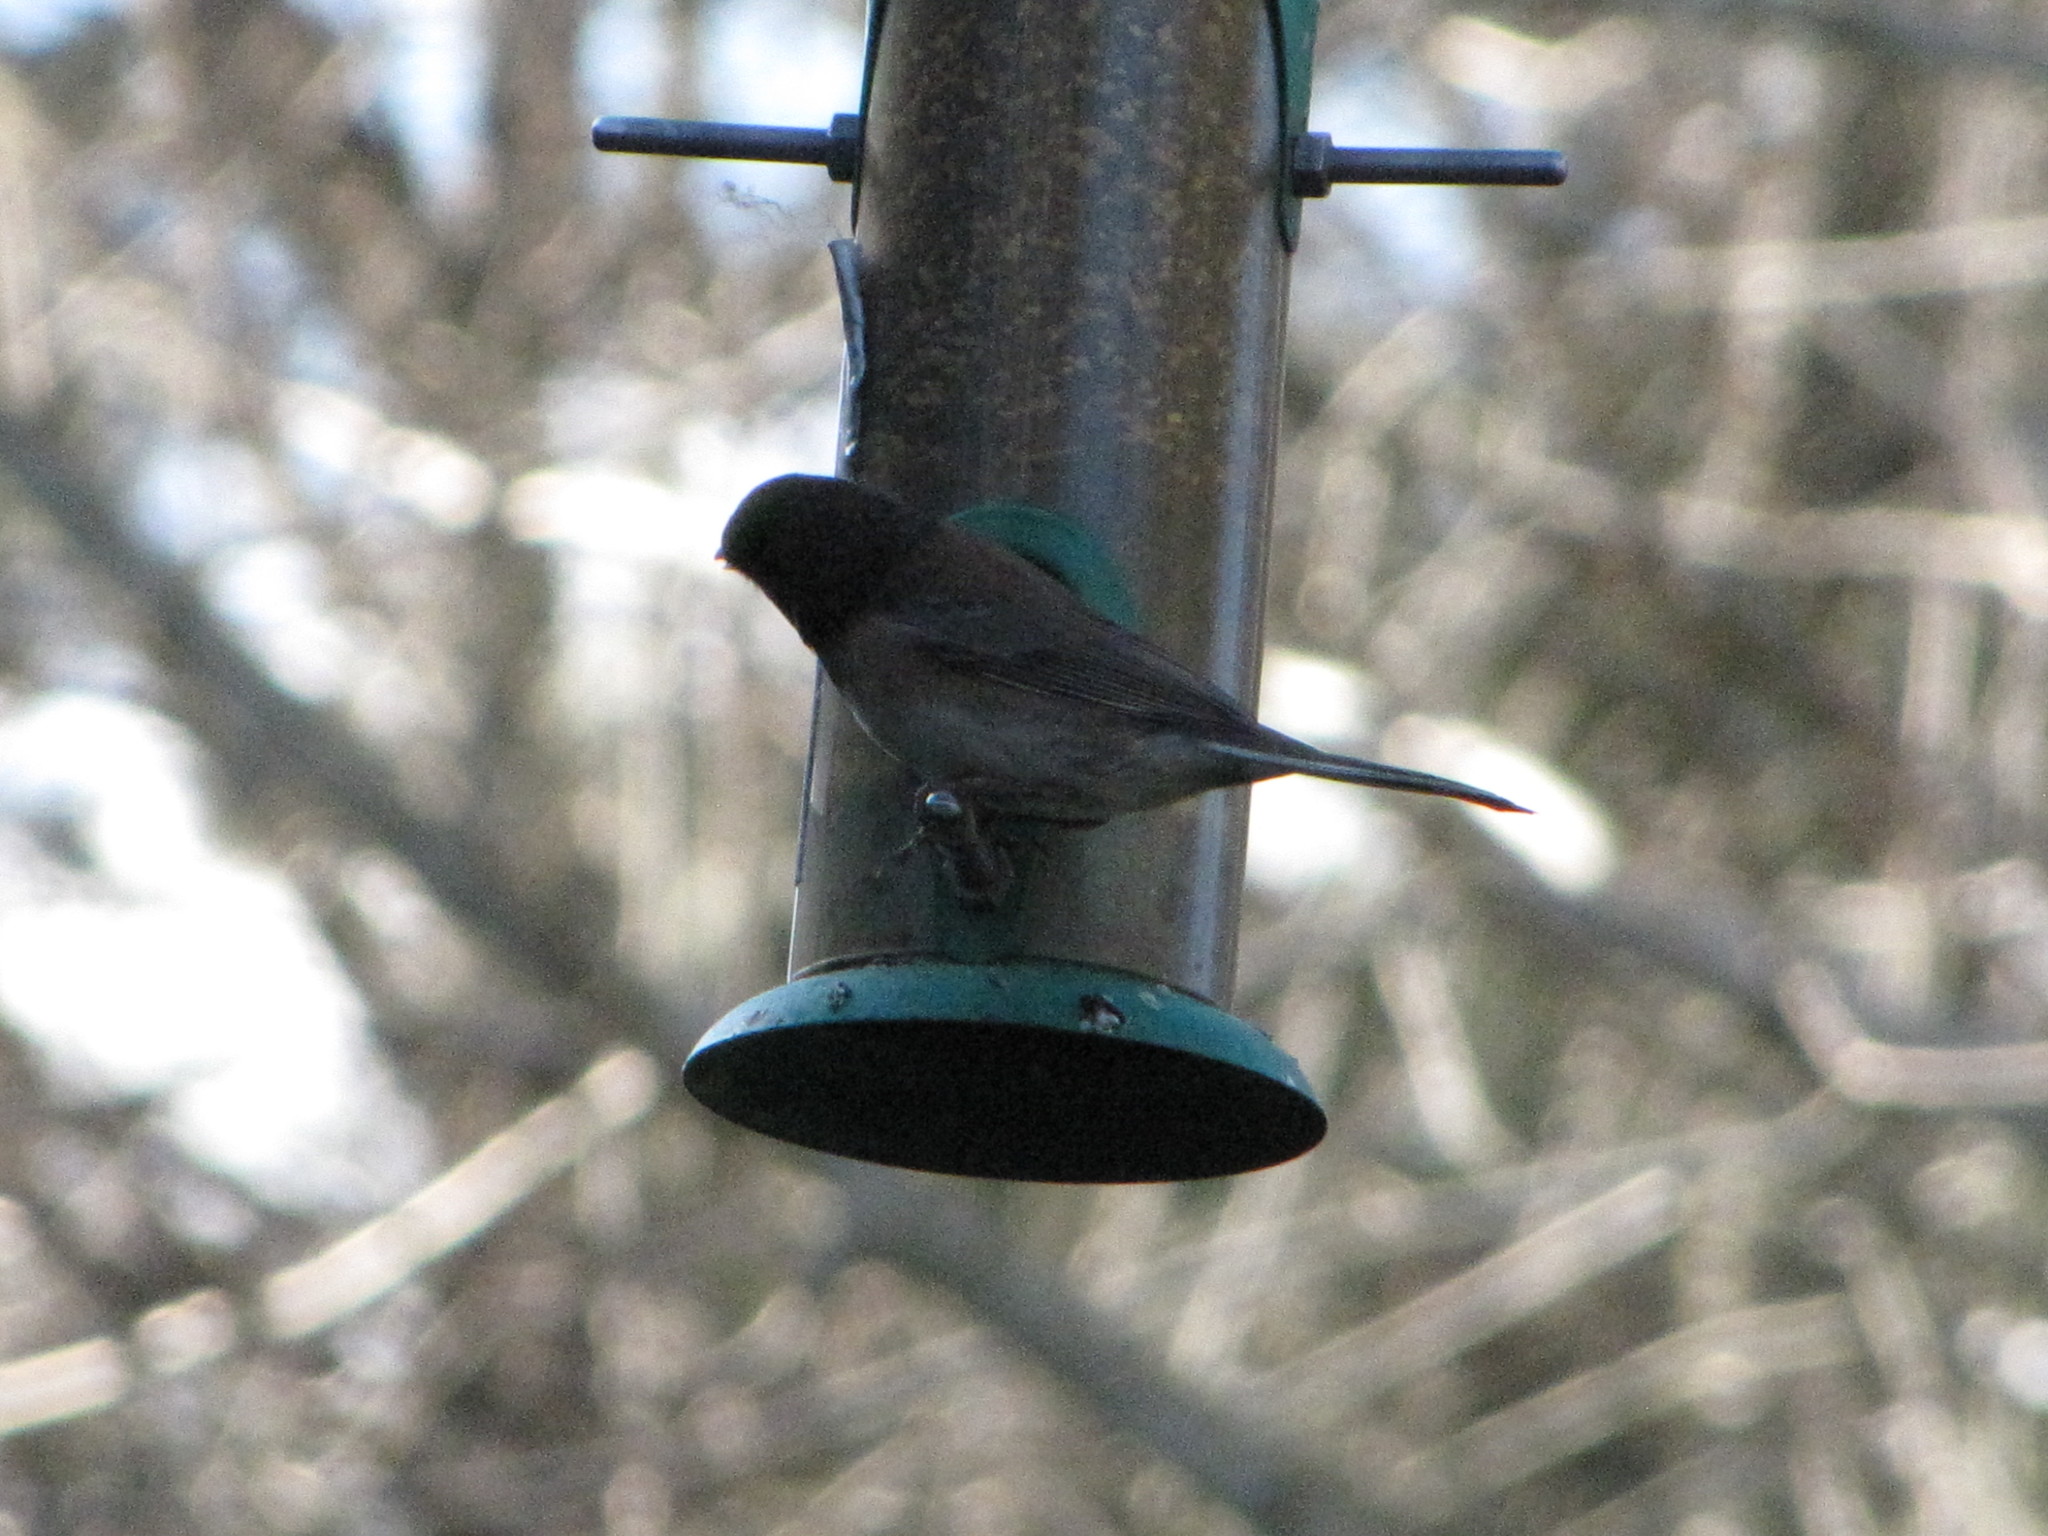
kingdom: Animalia
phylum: Chordata
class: Aves
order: Passeriformes
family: Passerellidae
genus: Junco
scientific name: Junco hyemalis
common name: Dark-eyed junco
